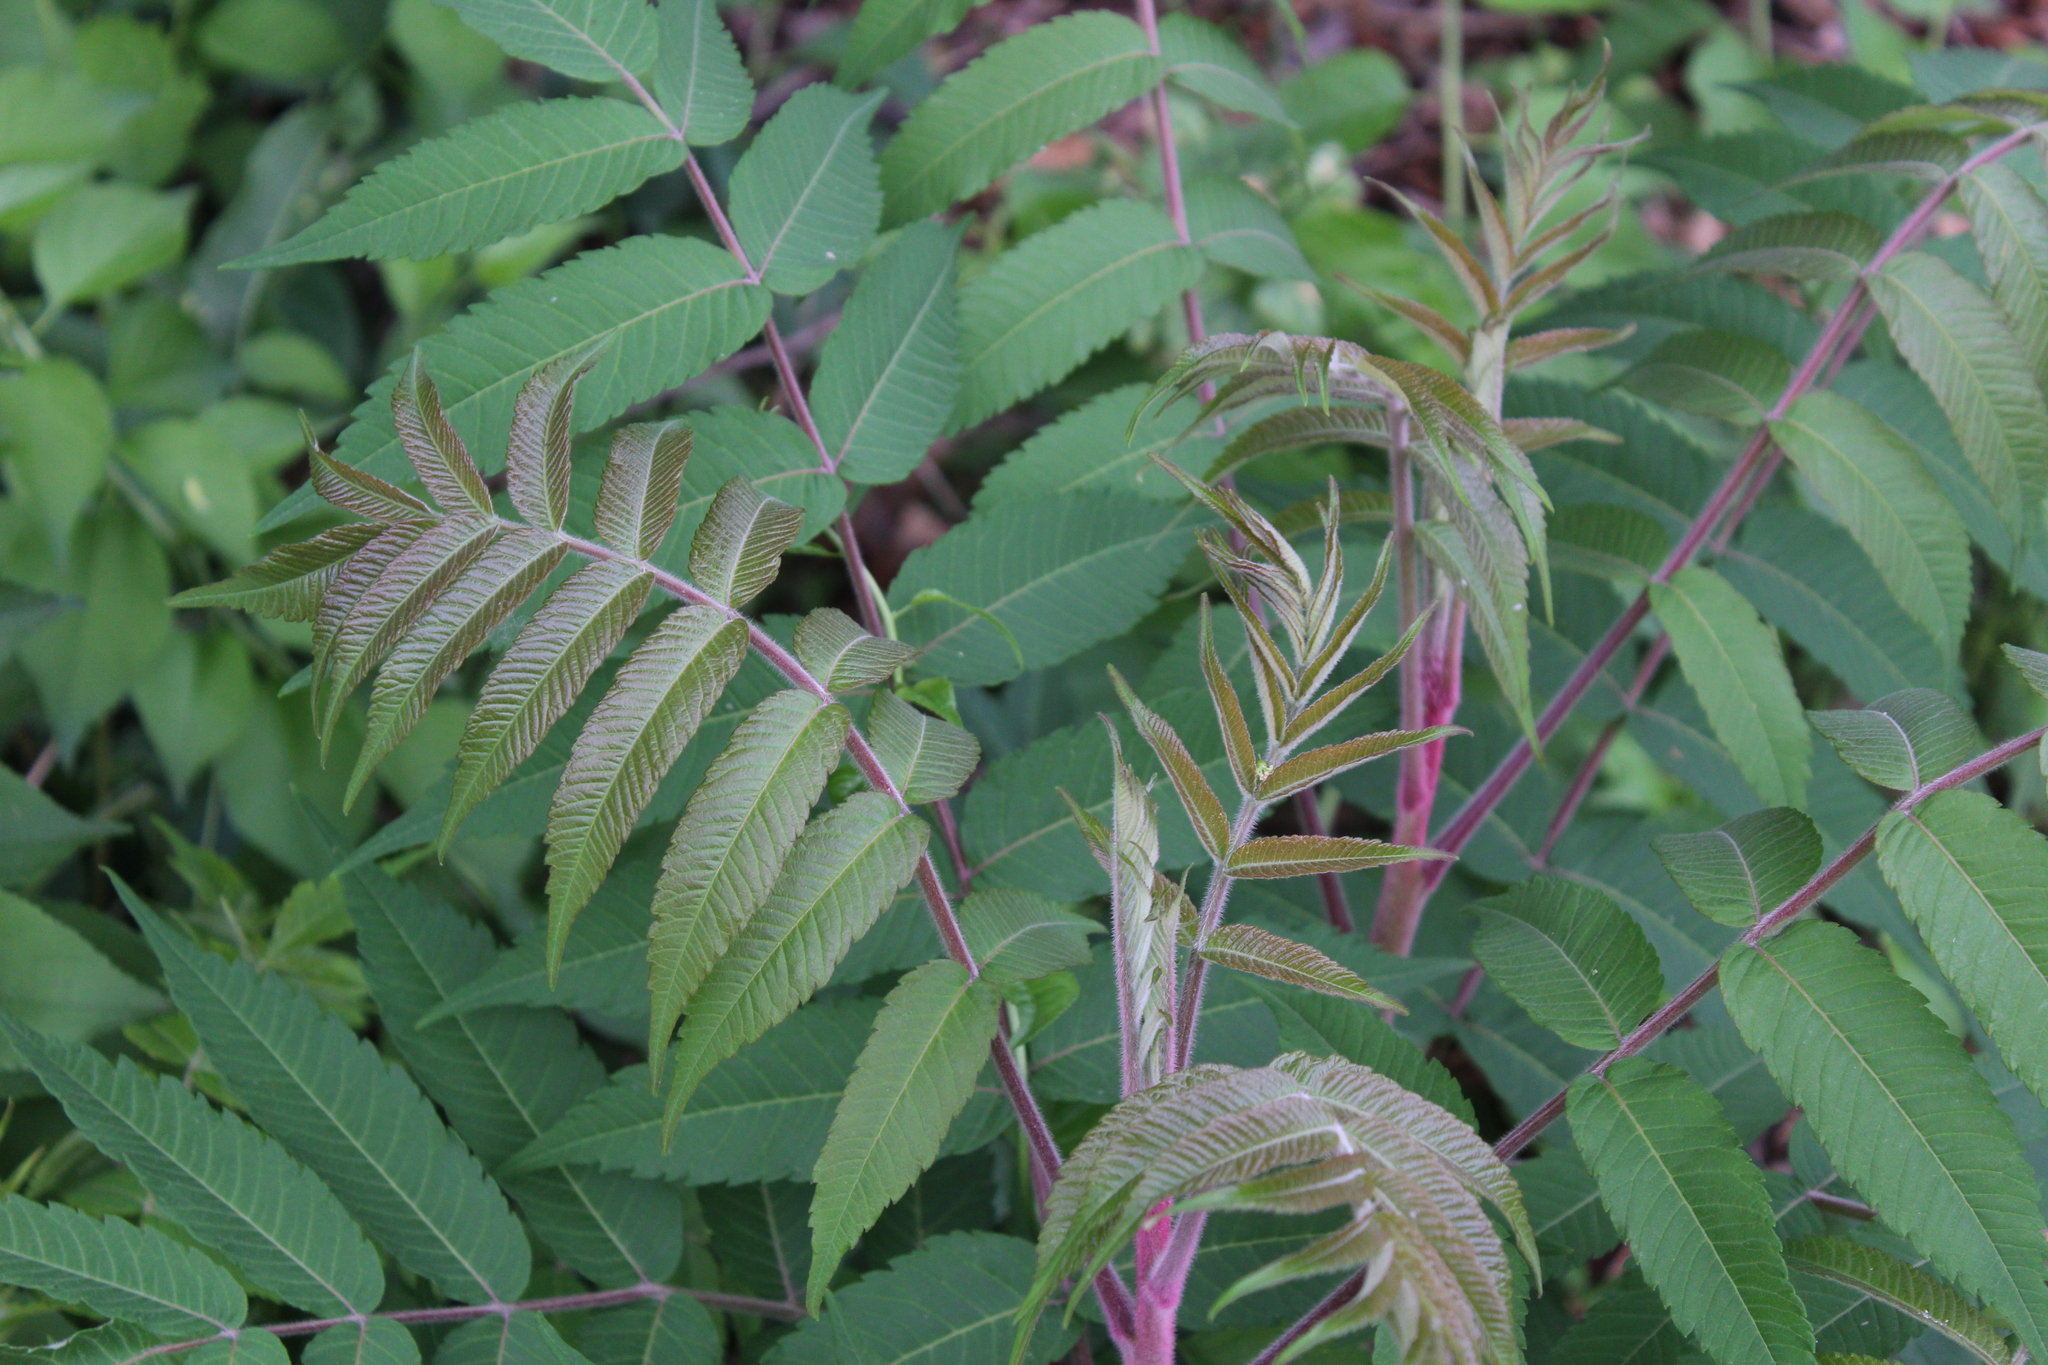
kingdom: Plantae
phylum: Tracheophyta
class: Magnoliopsida
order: Sapindales
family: Anacardiaceae
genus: Rhus
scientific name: Rhus typhina
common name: Staghorn sumac
